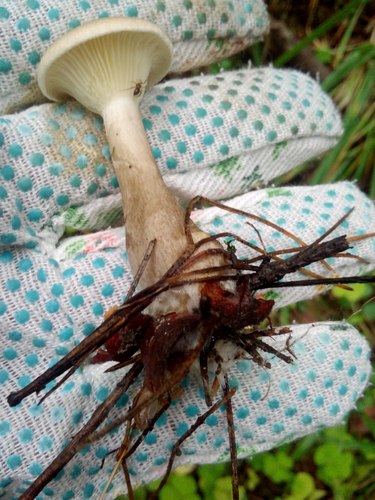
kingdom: Fungi
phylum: Basidiomycota
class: Agaricomycetes
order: Agaricales
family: Hygrophoraceae
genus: Ampulloclitocybe
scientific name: Ampulloclitocybe clavipes
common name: Club foot
